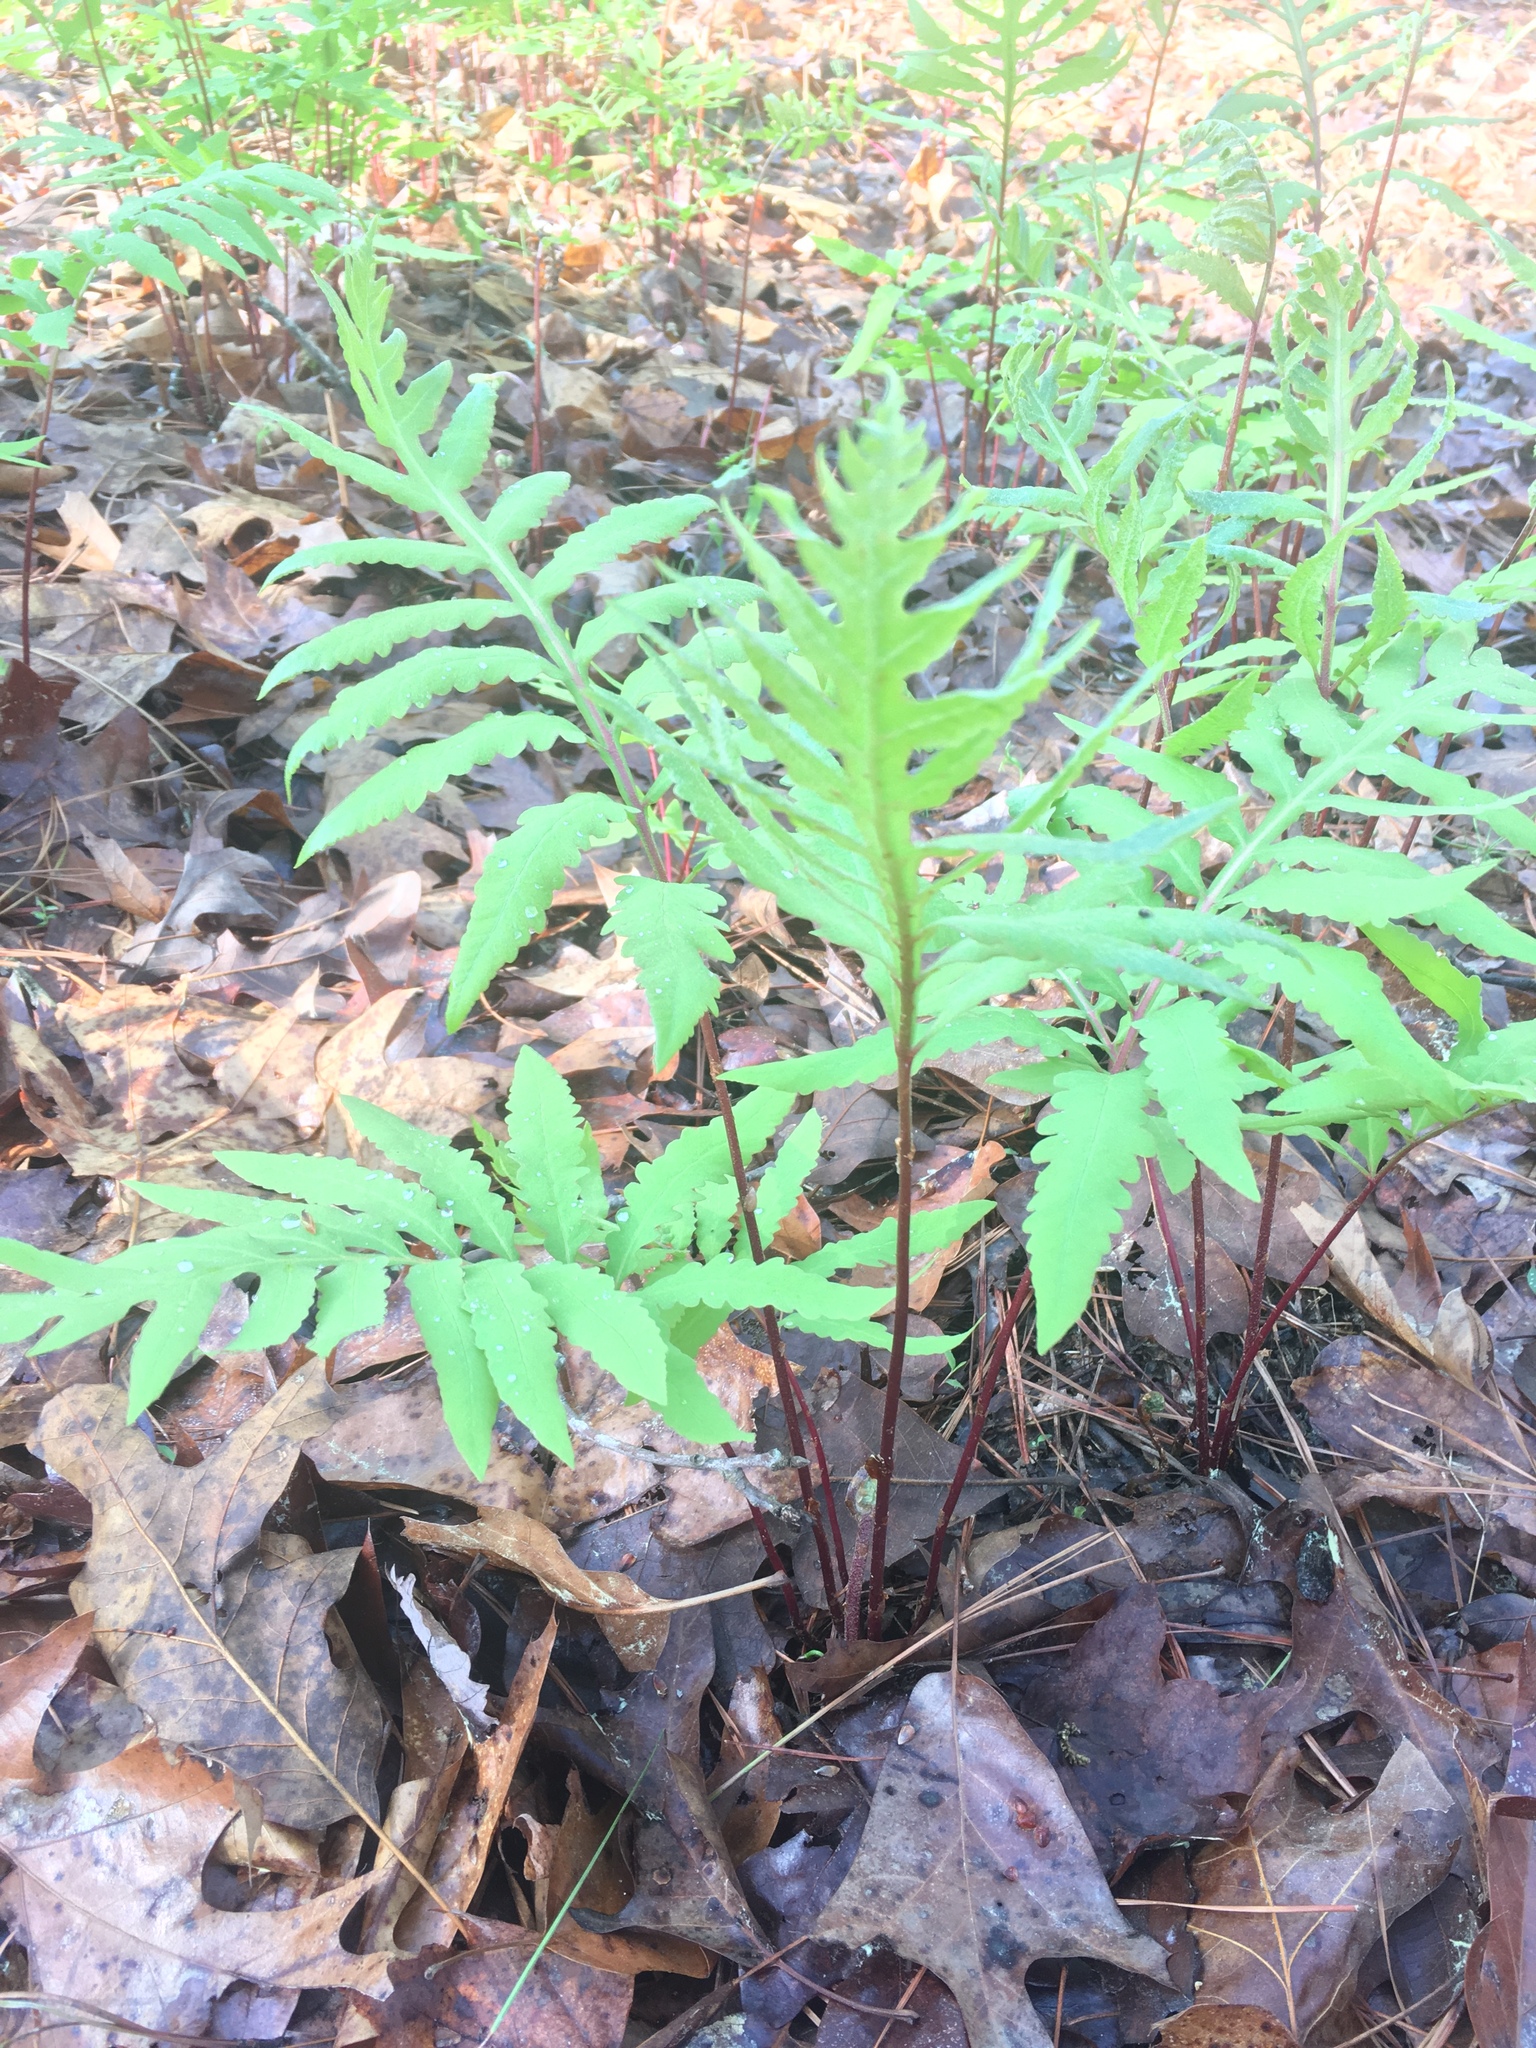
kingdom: Plantae
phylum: Tracheophyta
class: Polypodiopsida
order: Polypodiales
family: Onocleaceae
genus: Onoclea
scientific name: Onoclea sensibilis
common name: Sensitive fern
